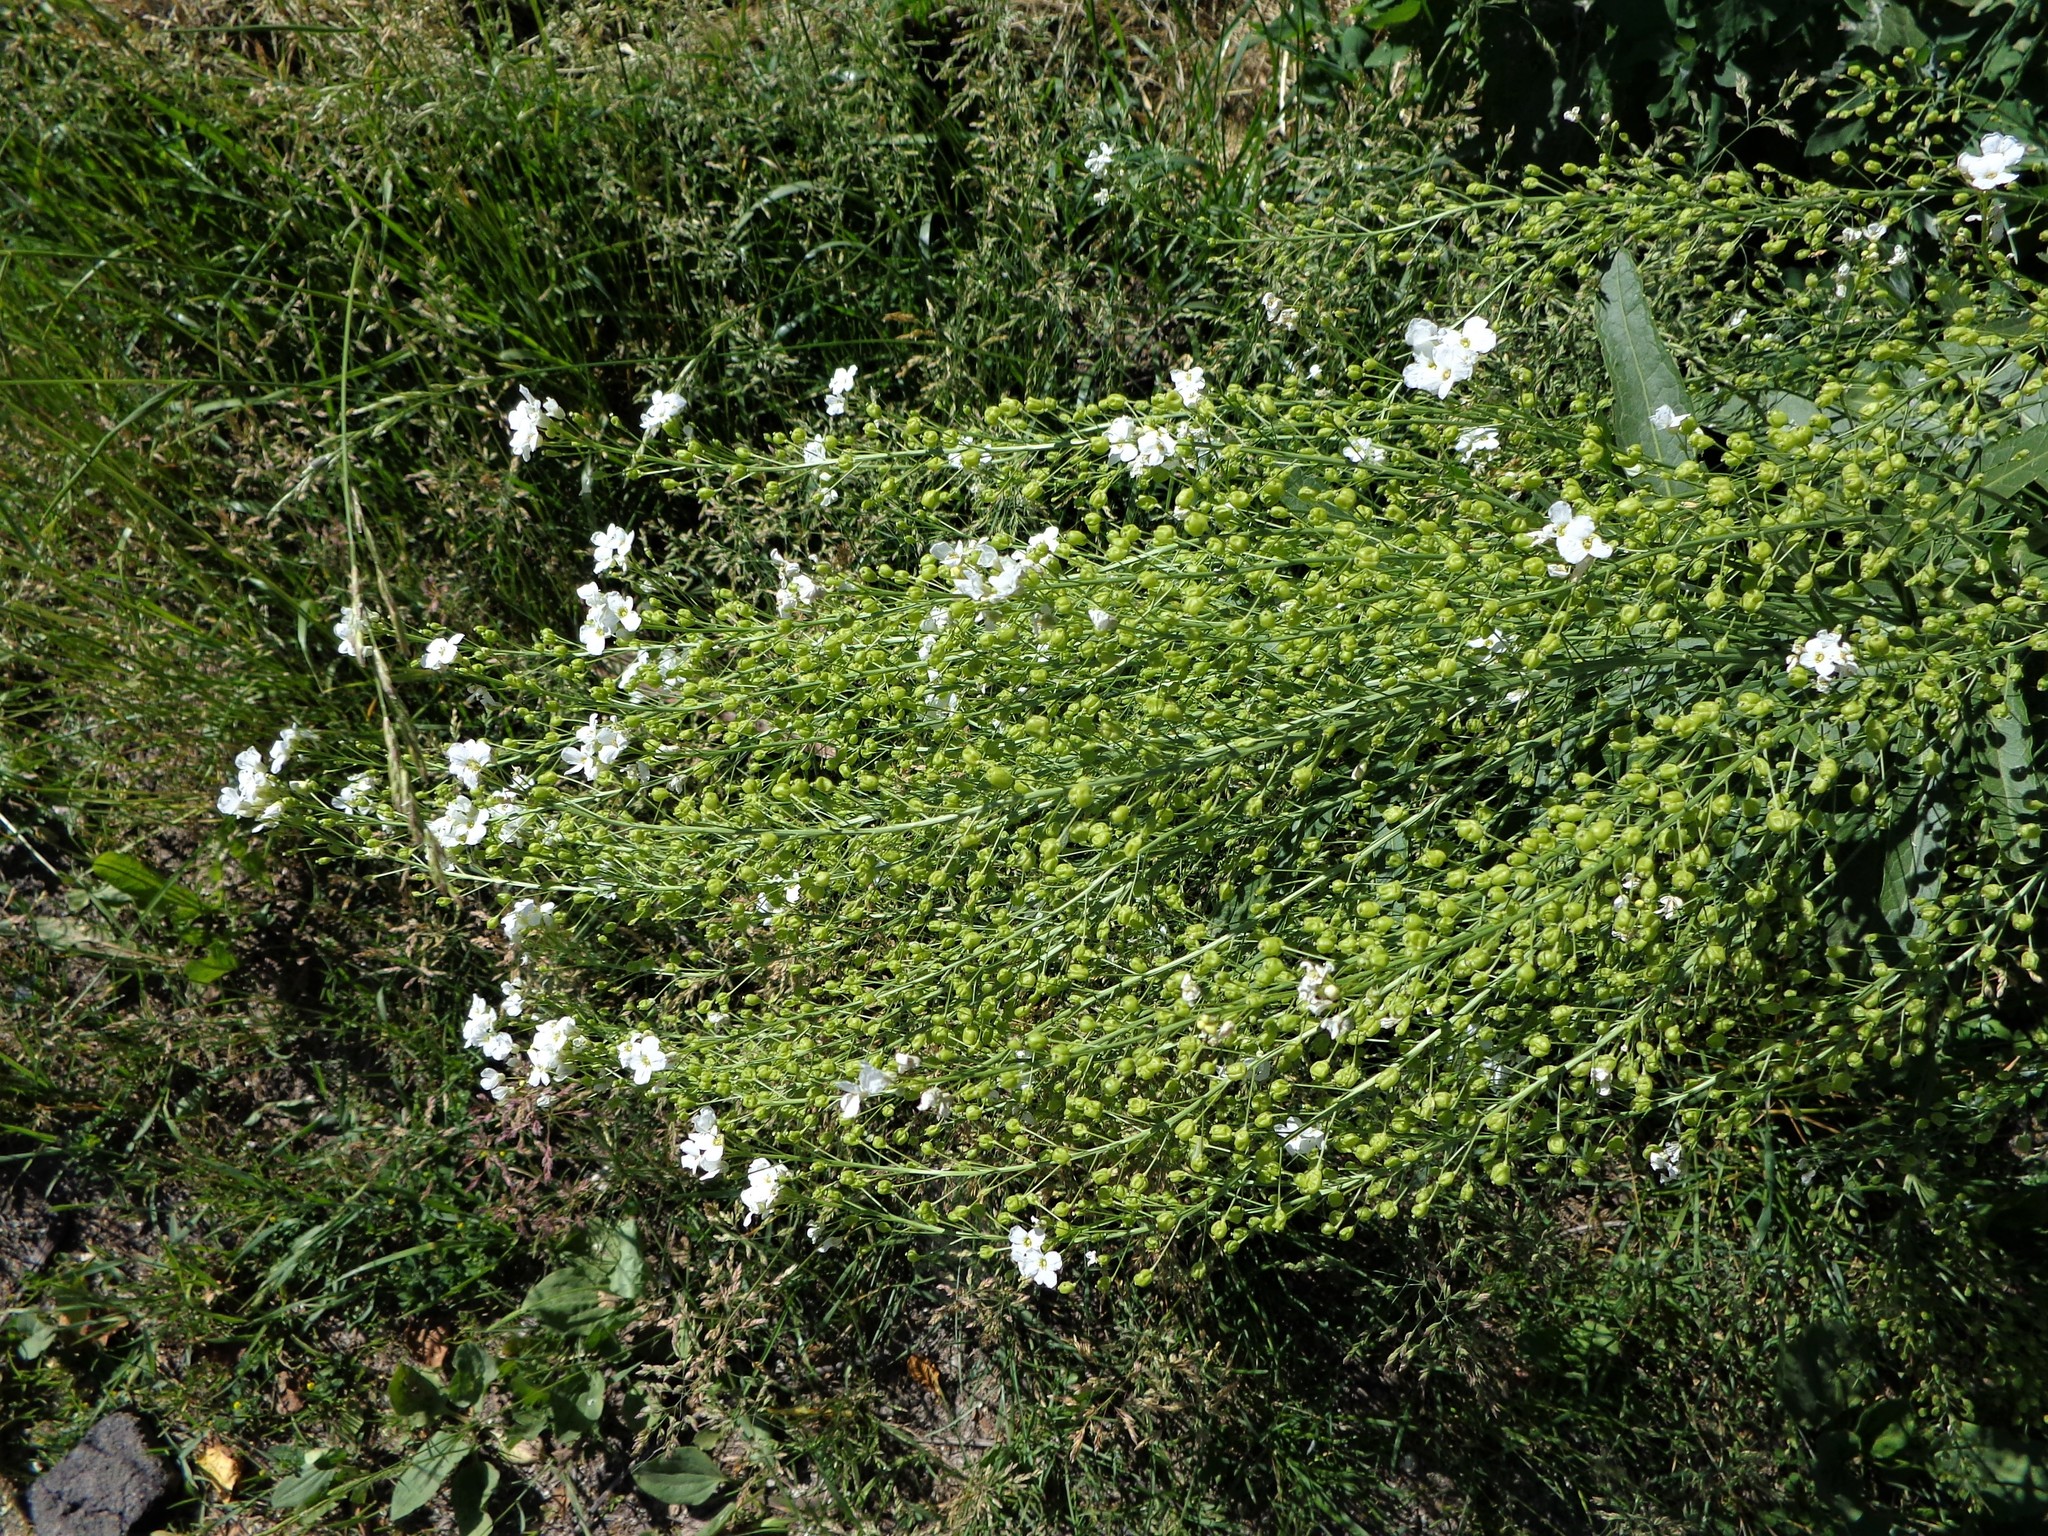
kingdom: Plantae
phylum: Tracheophyta
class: Magnoliopsida
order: Brassicales
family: Brassicaceae
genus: Armoracia
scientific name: Armoracia rusticana
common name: Horseradish
